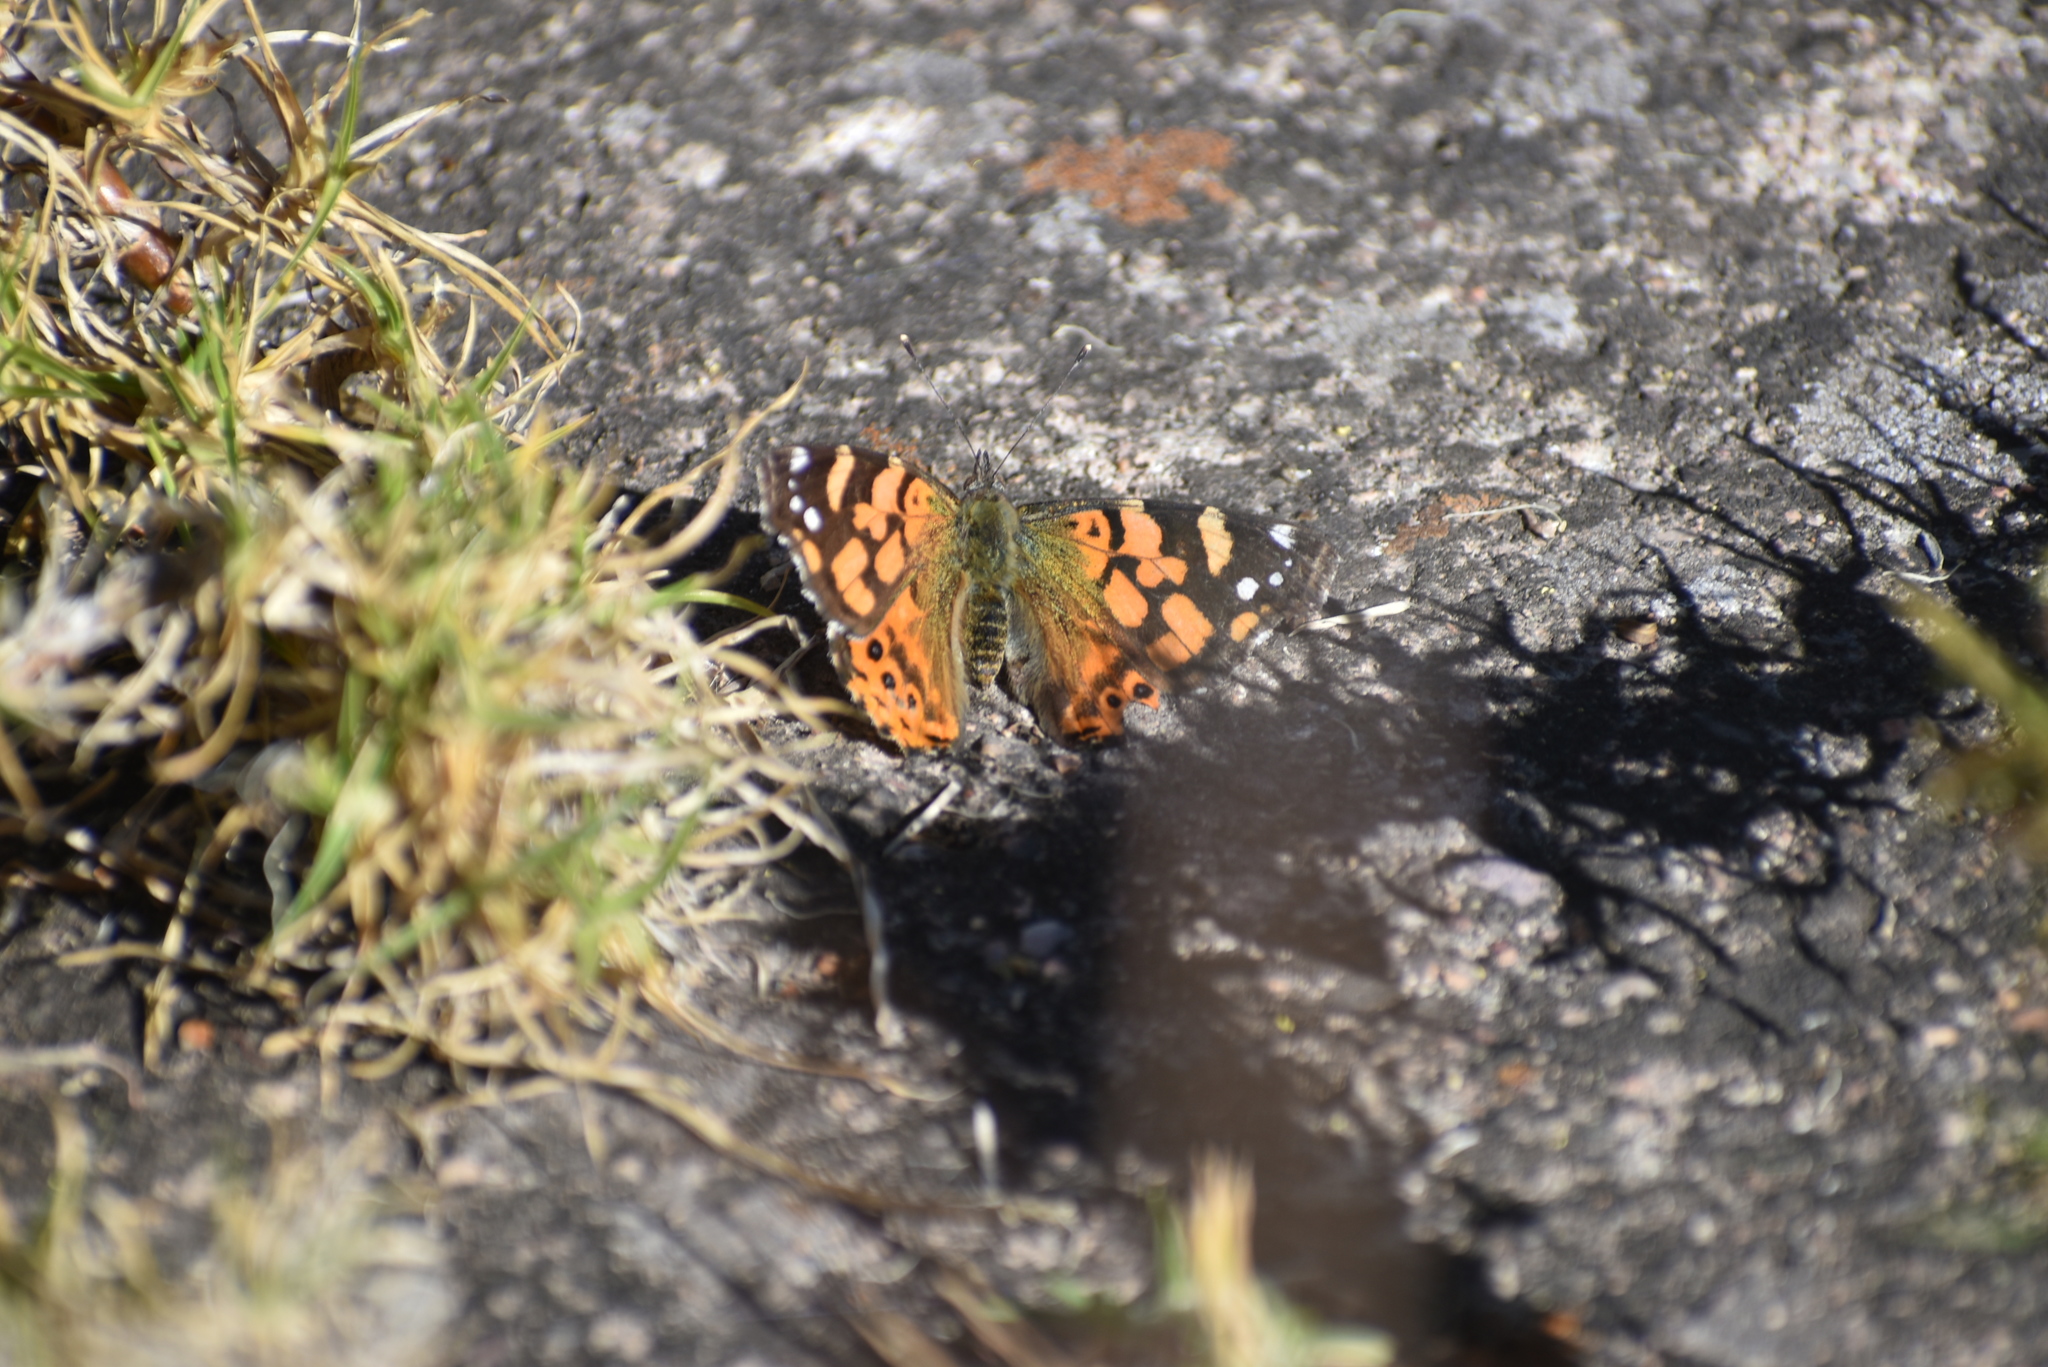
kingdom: Animalia
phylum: Arthropoda
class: Insecta
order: Lepidoptera
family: Nymphalidae
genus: Vanessa
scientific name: Vanessa carye
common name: Subtropical lady
